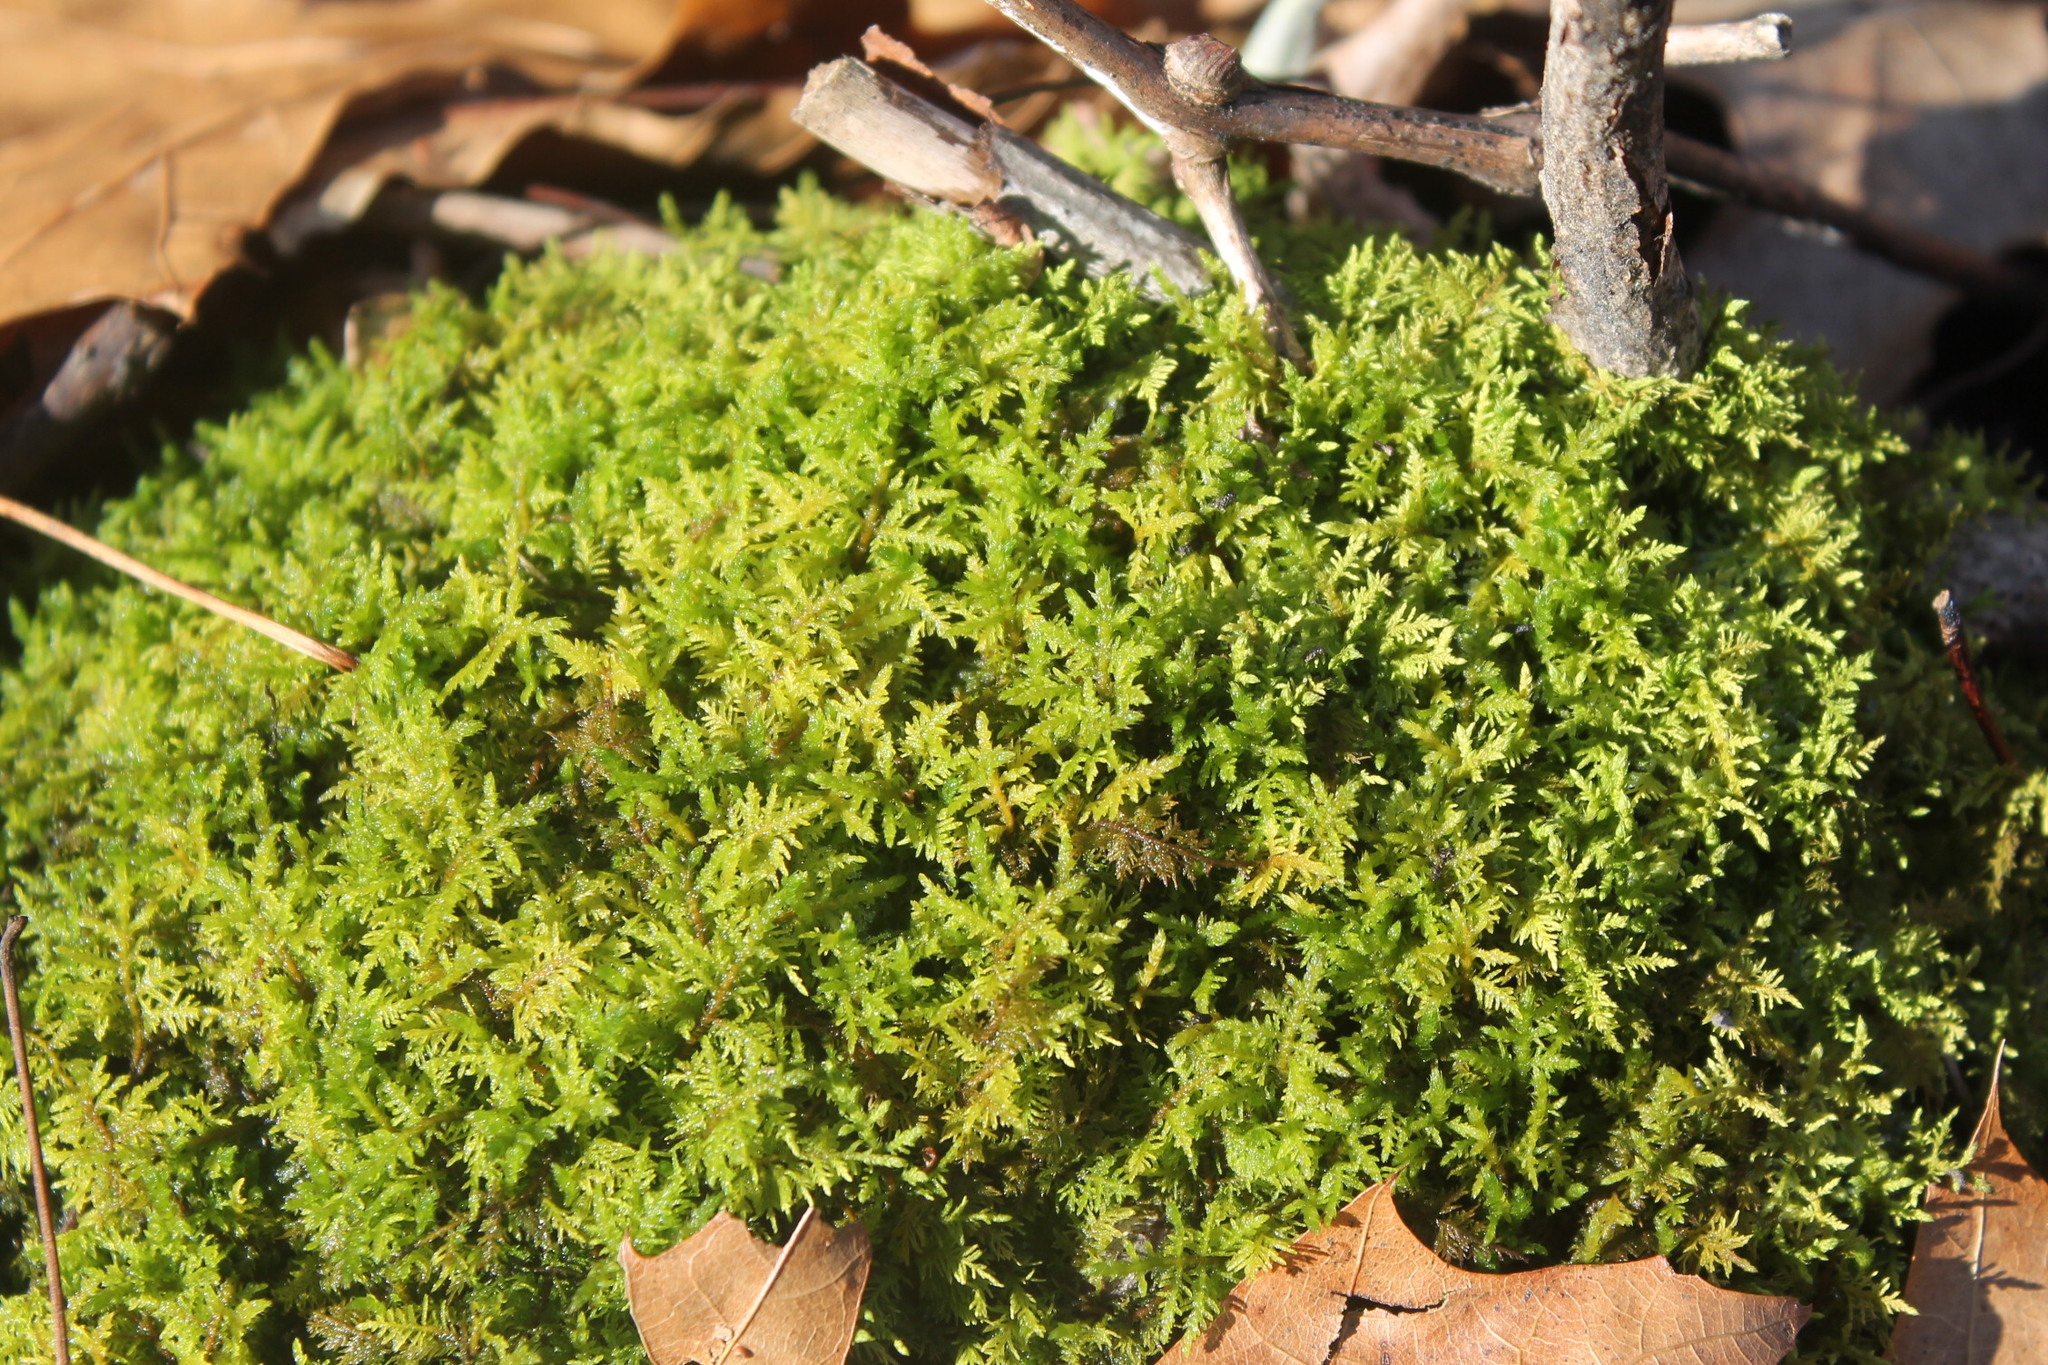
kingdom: Plantae
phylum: Bryophyta
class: Bryopsida
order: Hypnales
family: Thuidiaceae
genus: Thuidium
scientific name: Thuidium delicatulum
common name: Delicate fern moss
